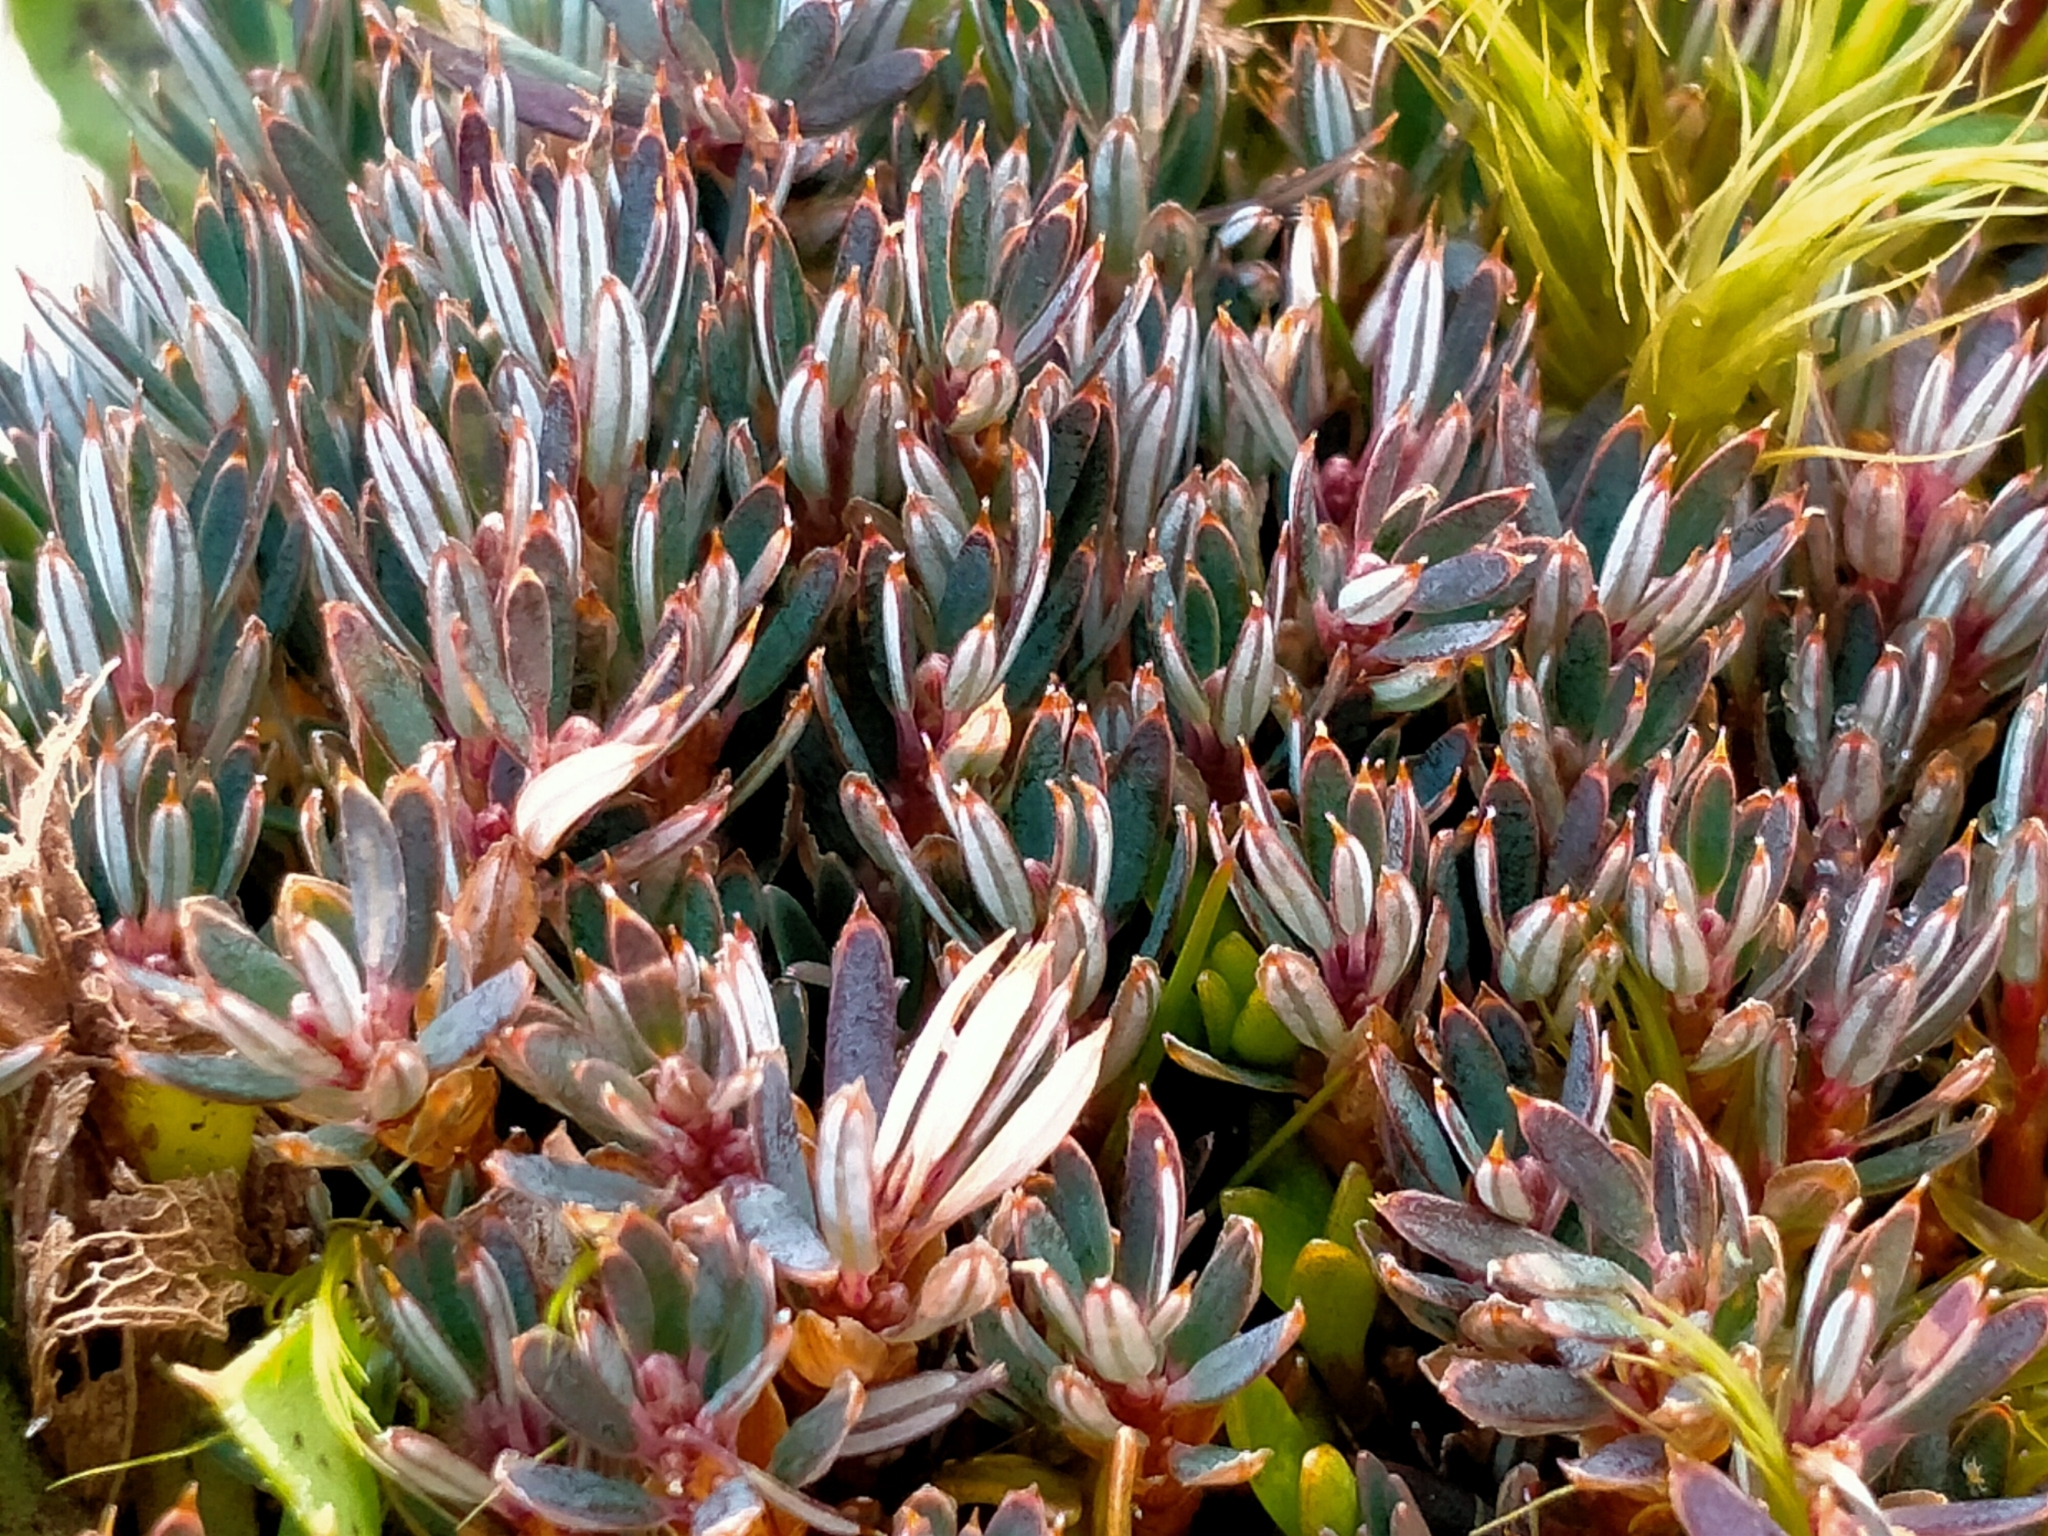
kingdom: Plantae
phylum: Tracheophyta
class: Magnoliopsida
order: Ericales
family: Ericaceae
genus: Montitega
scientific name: Montitega dealbata
